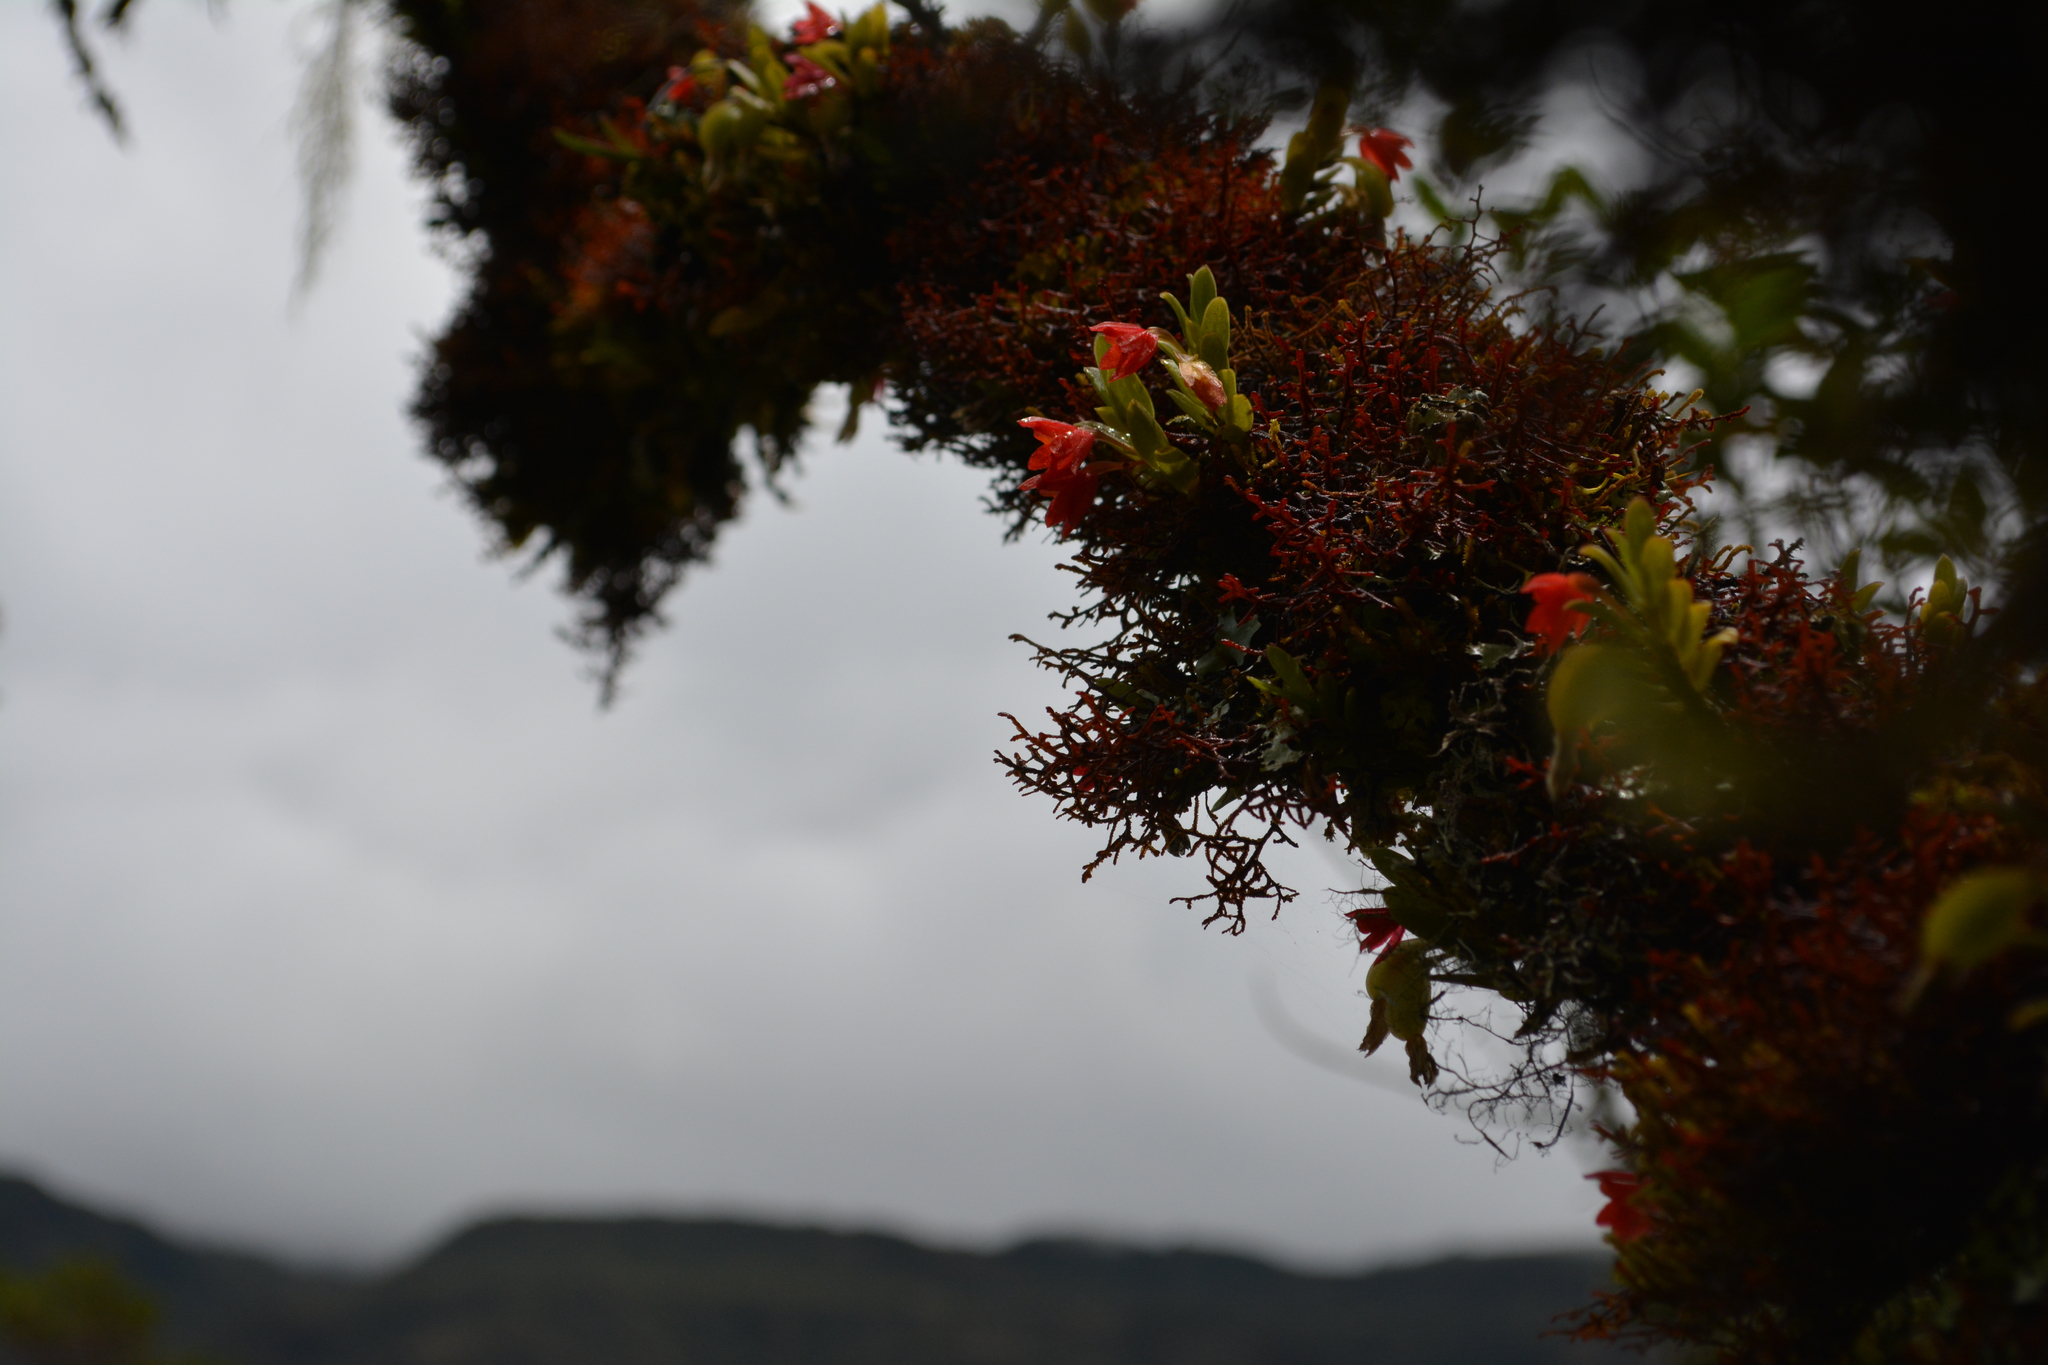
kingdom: Plantae
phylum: Tracheophyta
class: Liliopsida
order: Asparagales
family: Orchidaceae
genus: Fernandezia
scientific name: Fernandezia sanguinea
